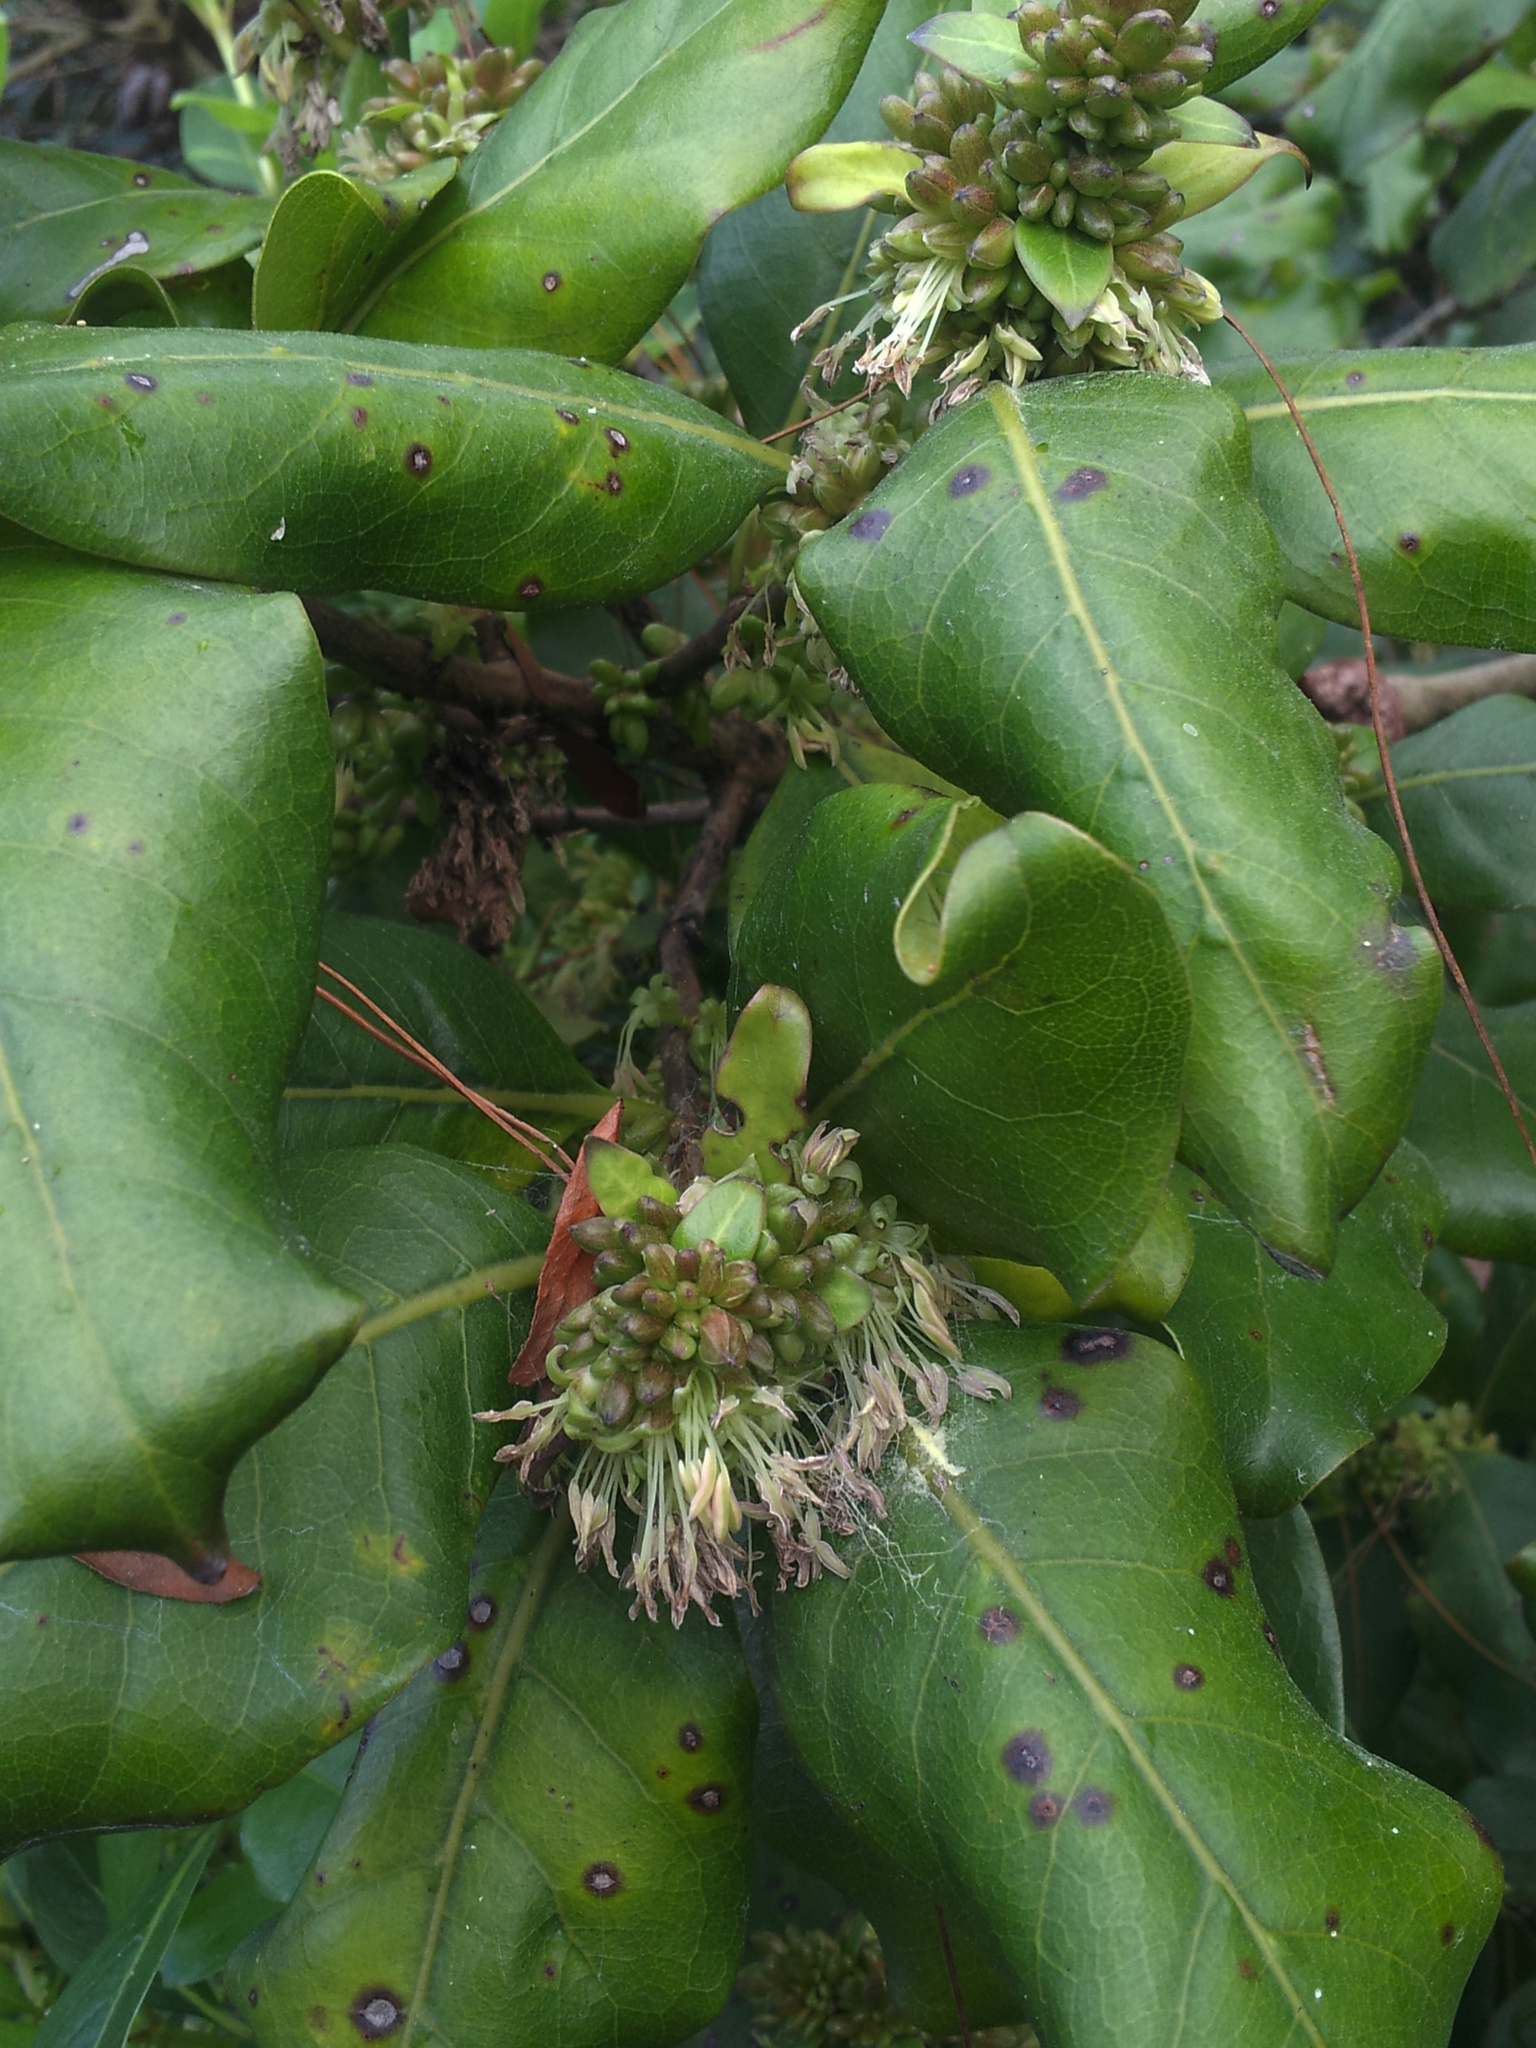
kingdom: Plantae
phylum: Tracheophyta
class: Magnoliopsida
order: Gentianales
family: Rubiaceae
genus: Coprosma
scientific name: Coprosma macrocarpa
